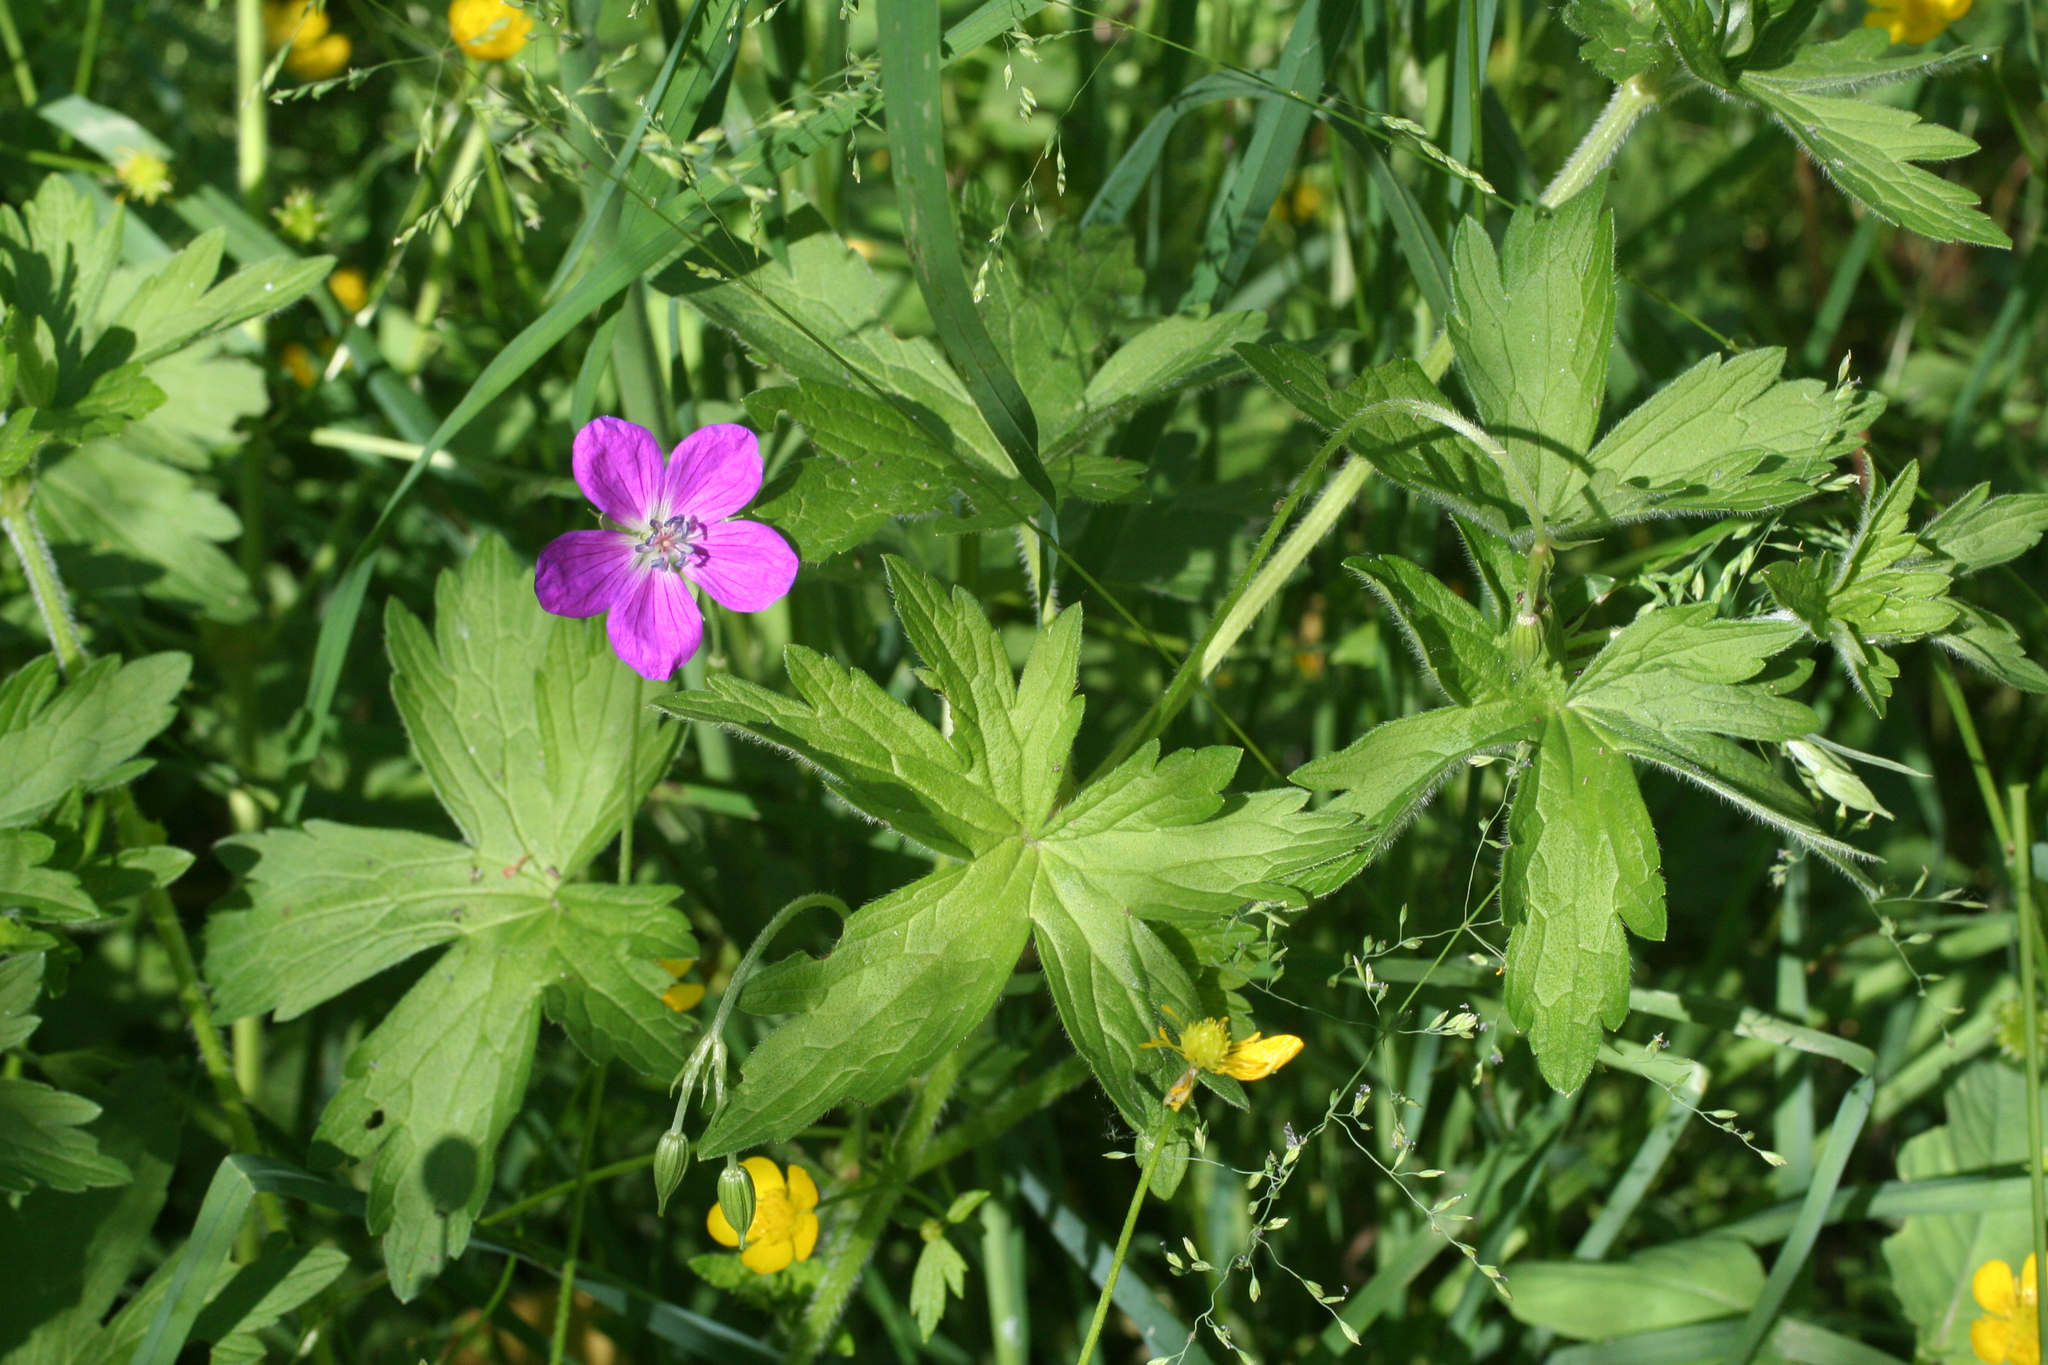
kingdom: Plantae
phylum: Tracheophyta
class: Magnoliopsida
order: Geraniales
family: Geraniaceae
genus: Geranium
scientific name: Geranium palustre
